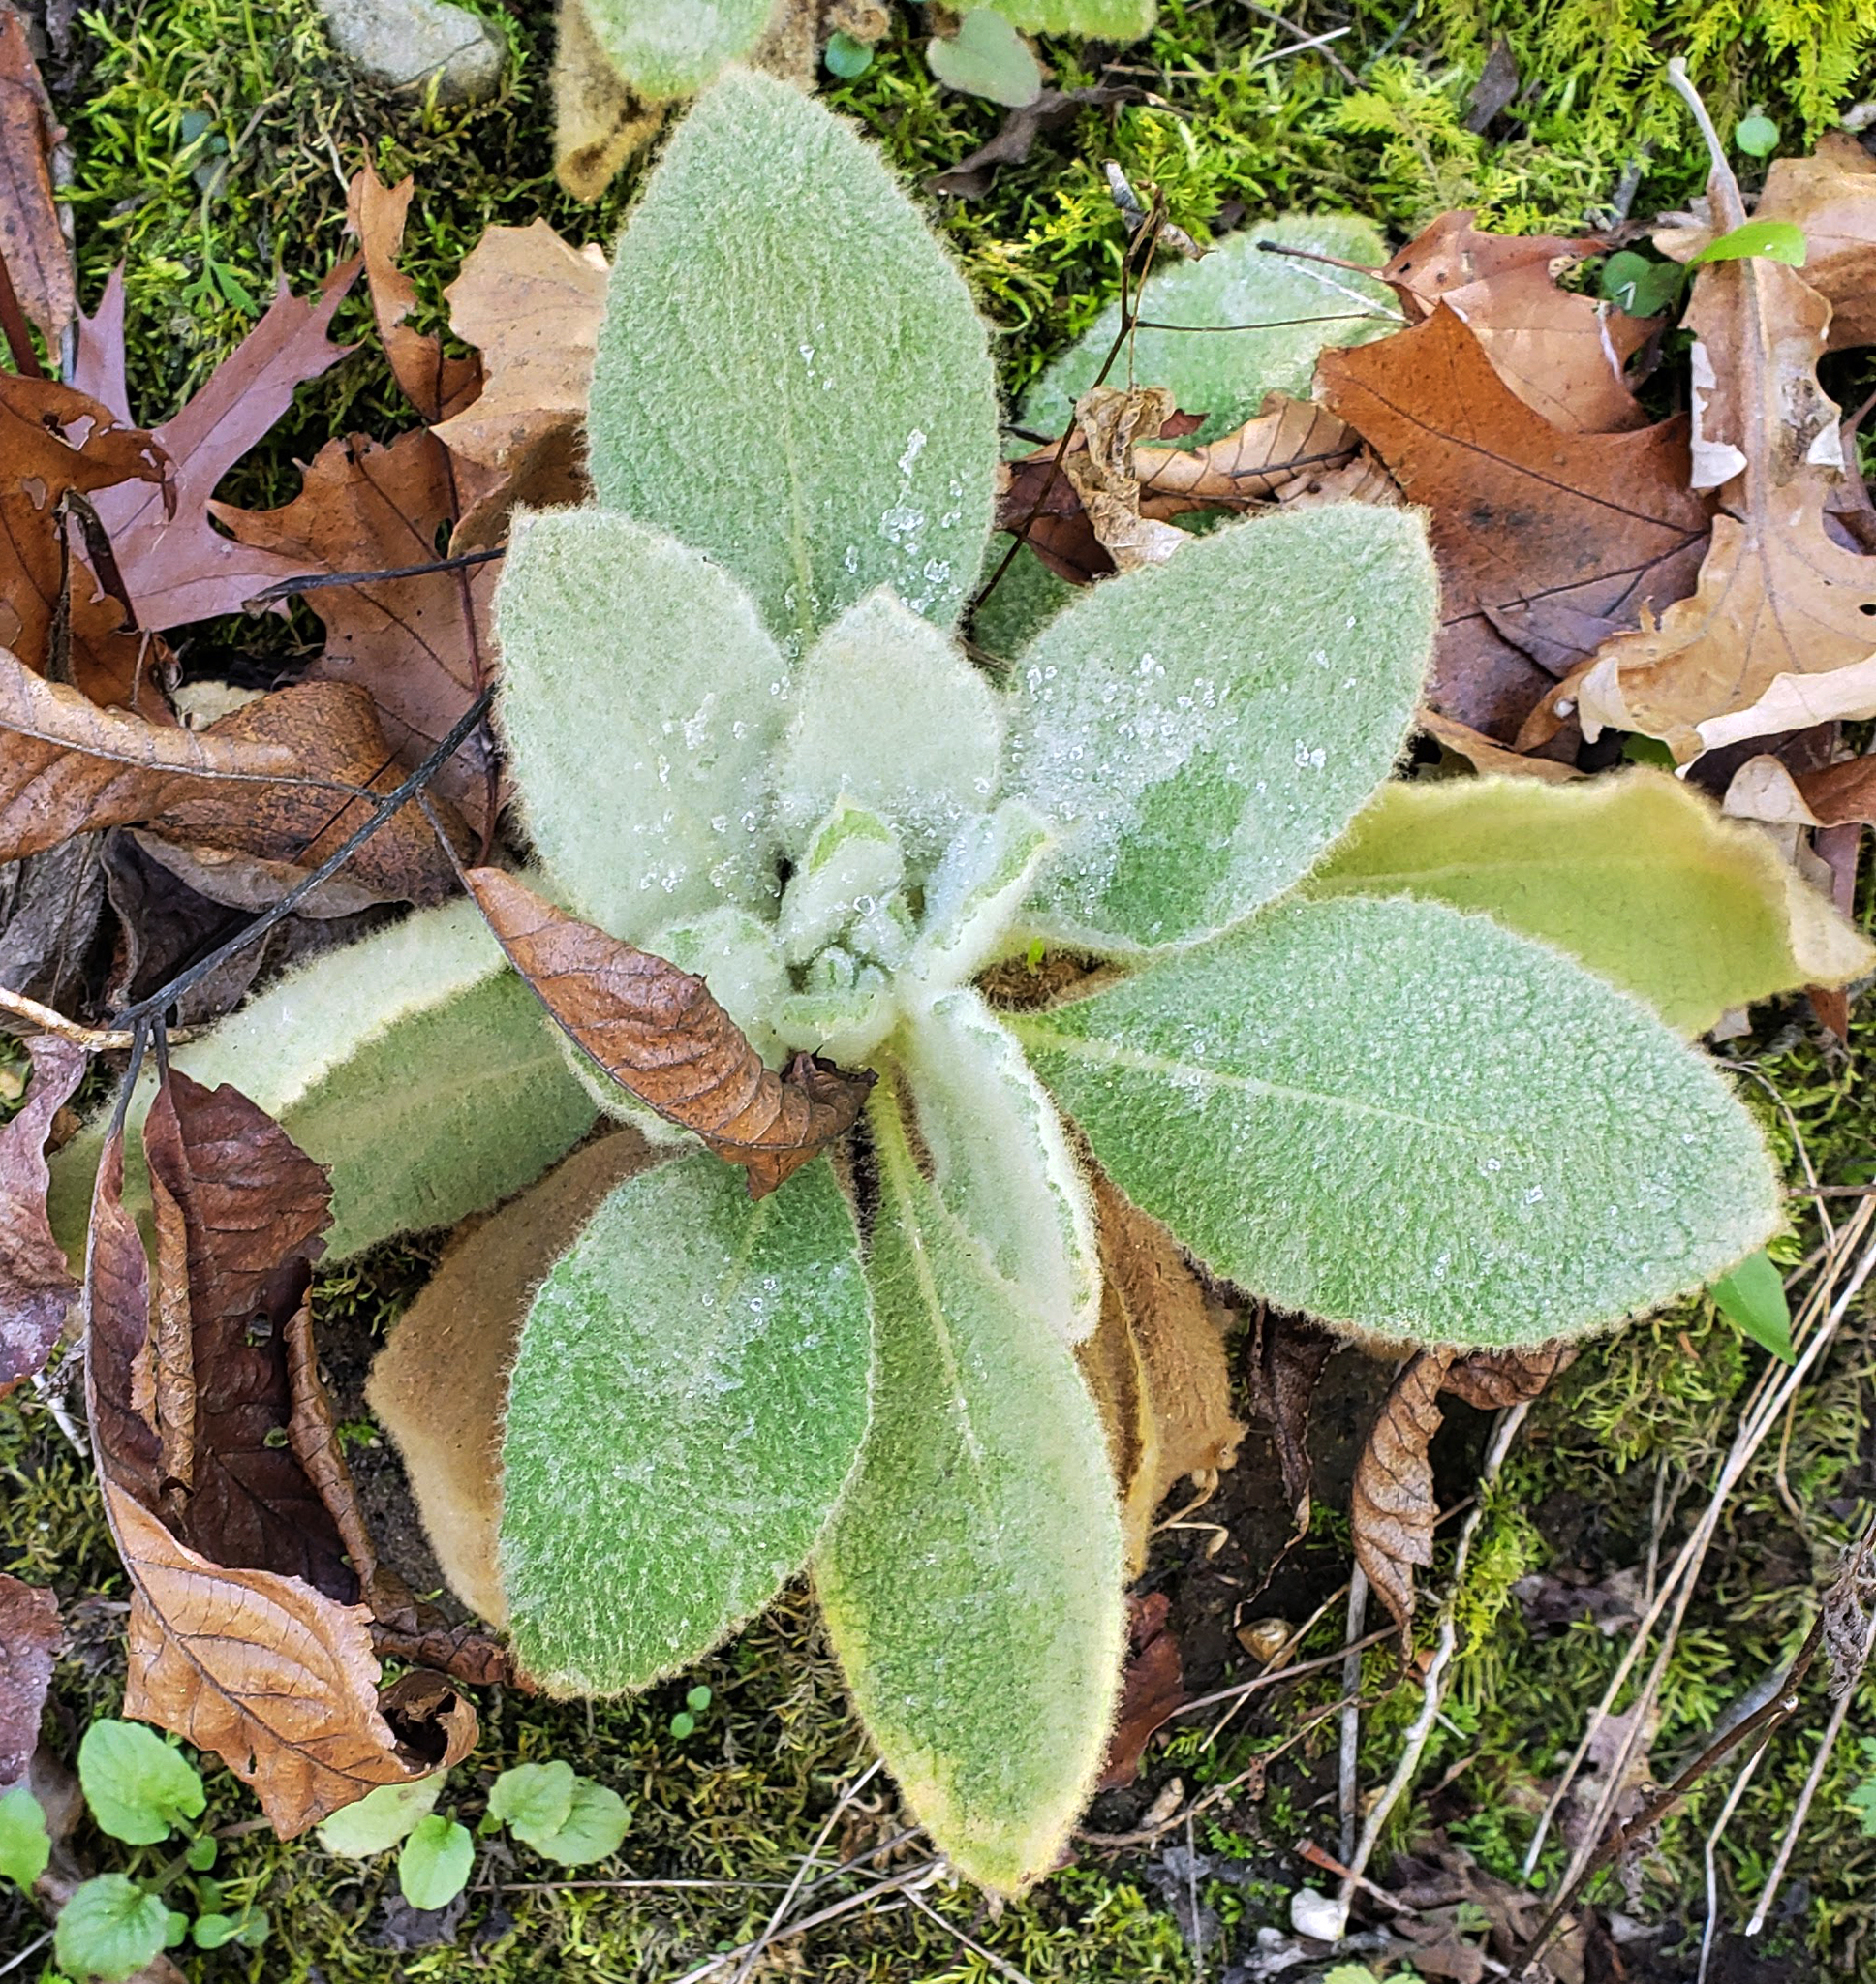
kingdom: Plantae
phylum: Tracheophyta
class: Magnoliopsida
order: Lamiales
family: Scrophulariaceae
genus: Verbascum
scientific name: Verbascum thapsus
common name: Common mullein
